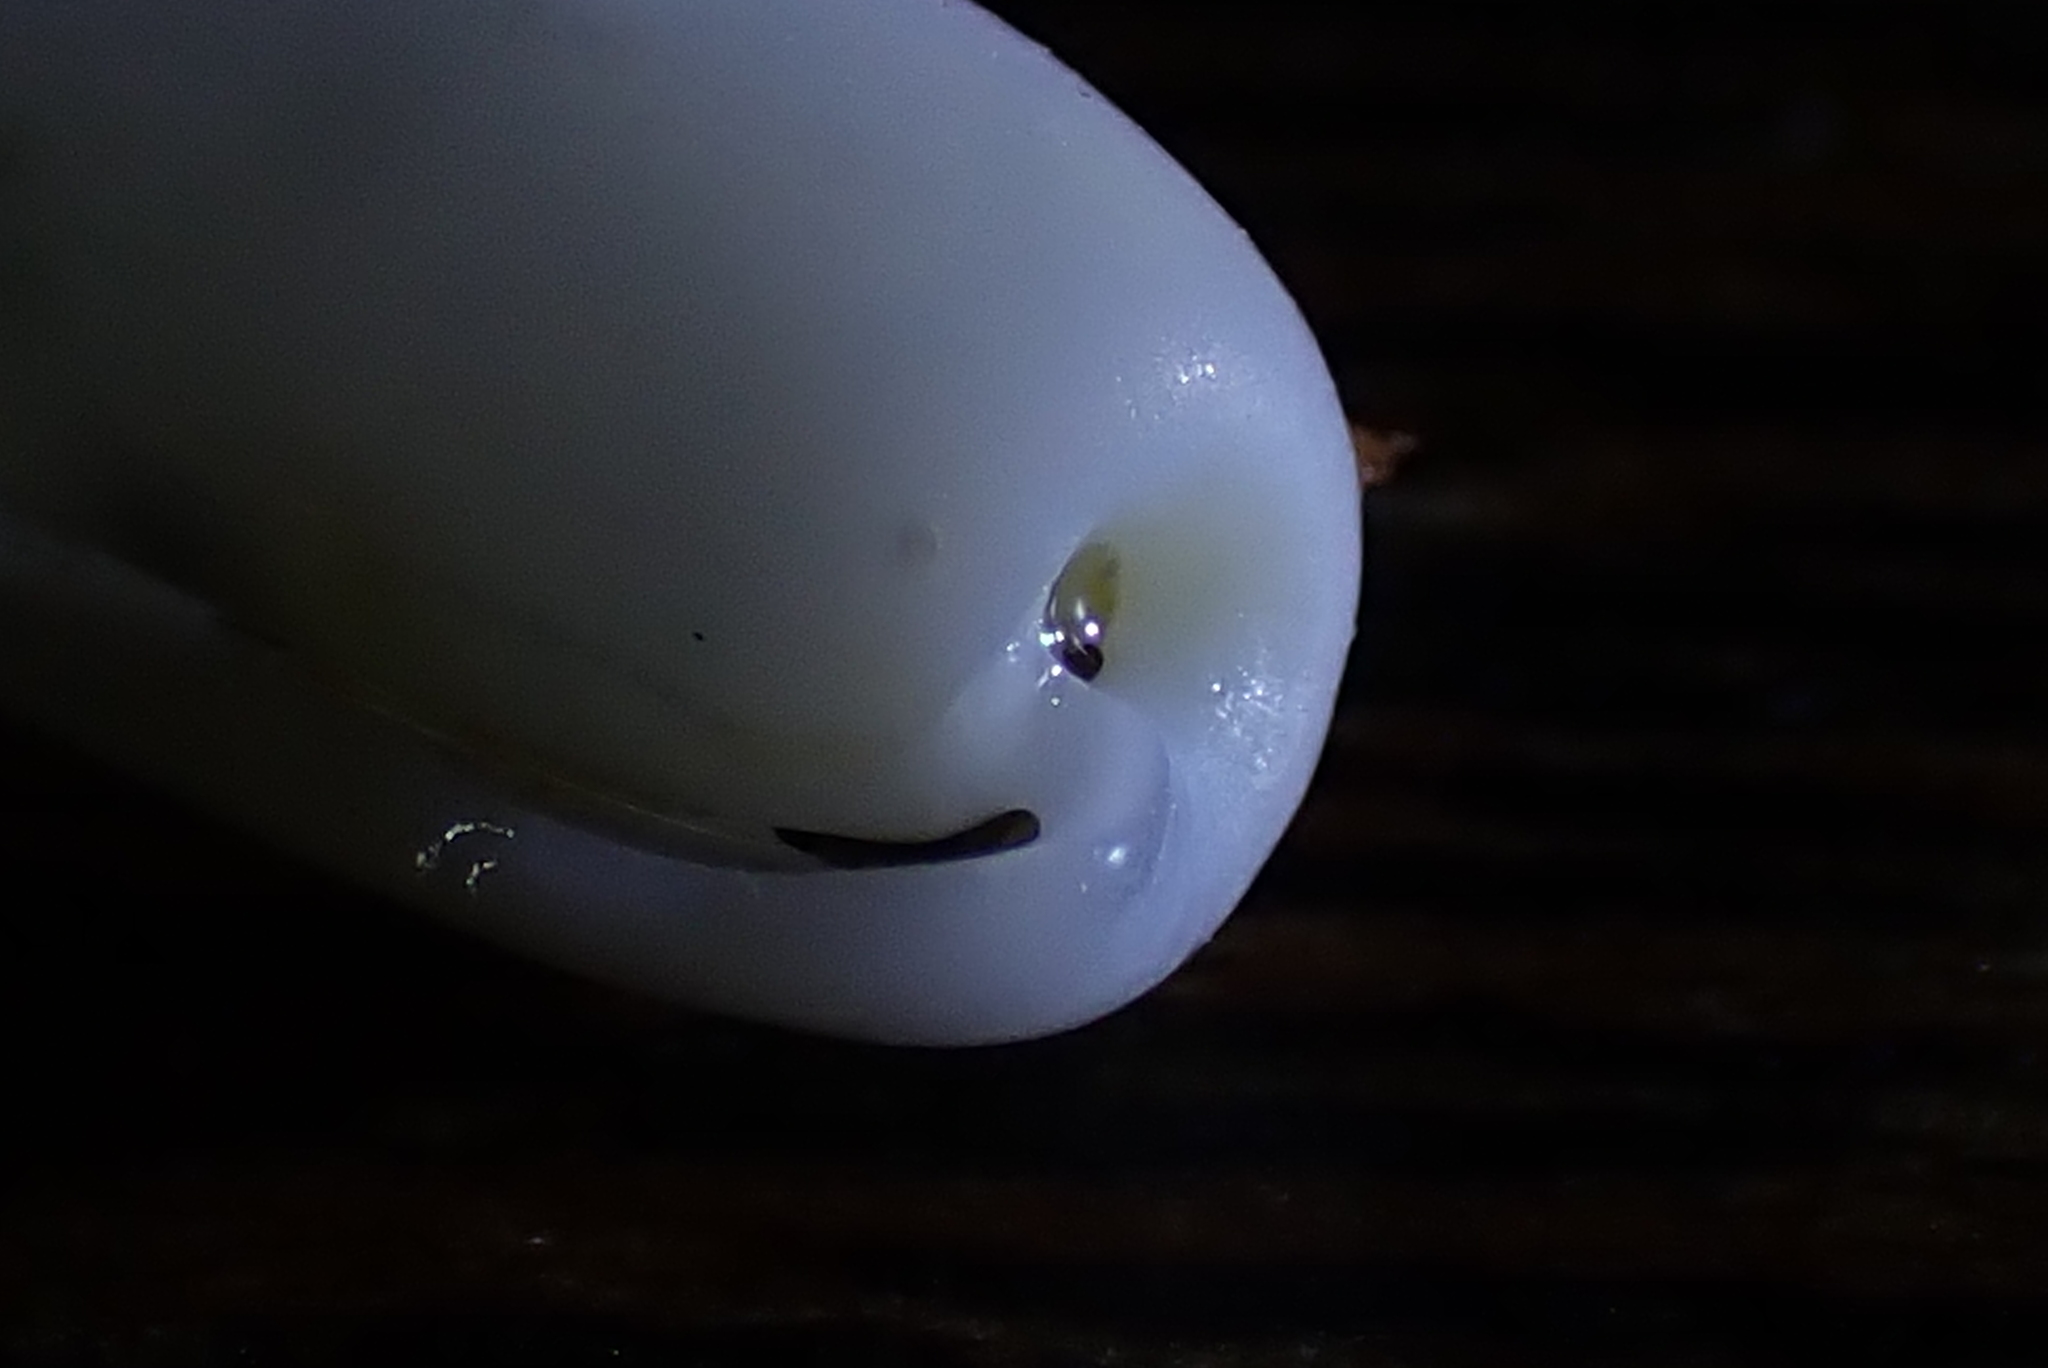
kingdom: Animalia
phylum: Mollusca
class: Gastropoda
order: Cephalaspidea
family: Cylichnidae
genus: Cylichna
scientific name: Cylichna thetidis
